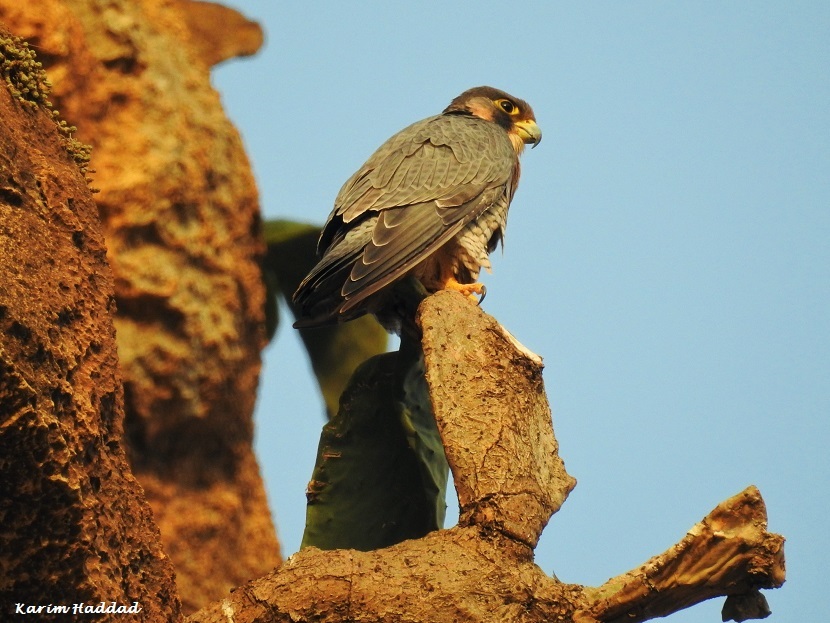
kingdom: Animalia
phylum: Chordata
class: Aves
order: Falconiformes
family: Falconidae
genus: Falco
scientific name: Falco peregrinus
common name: Peregrine falcon
